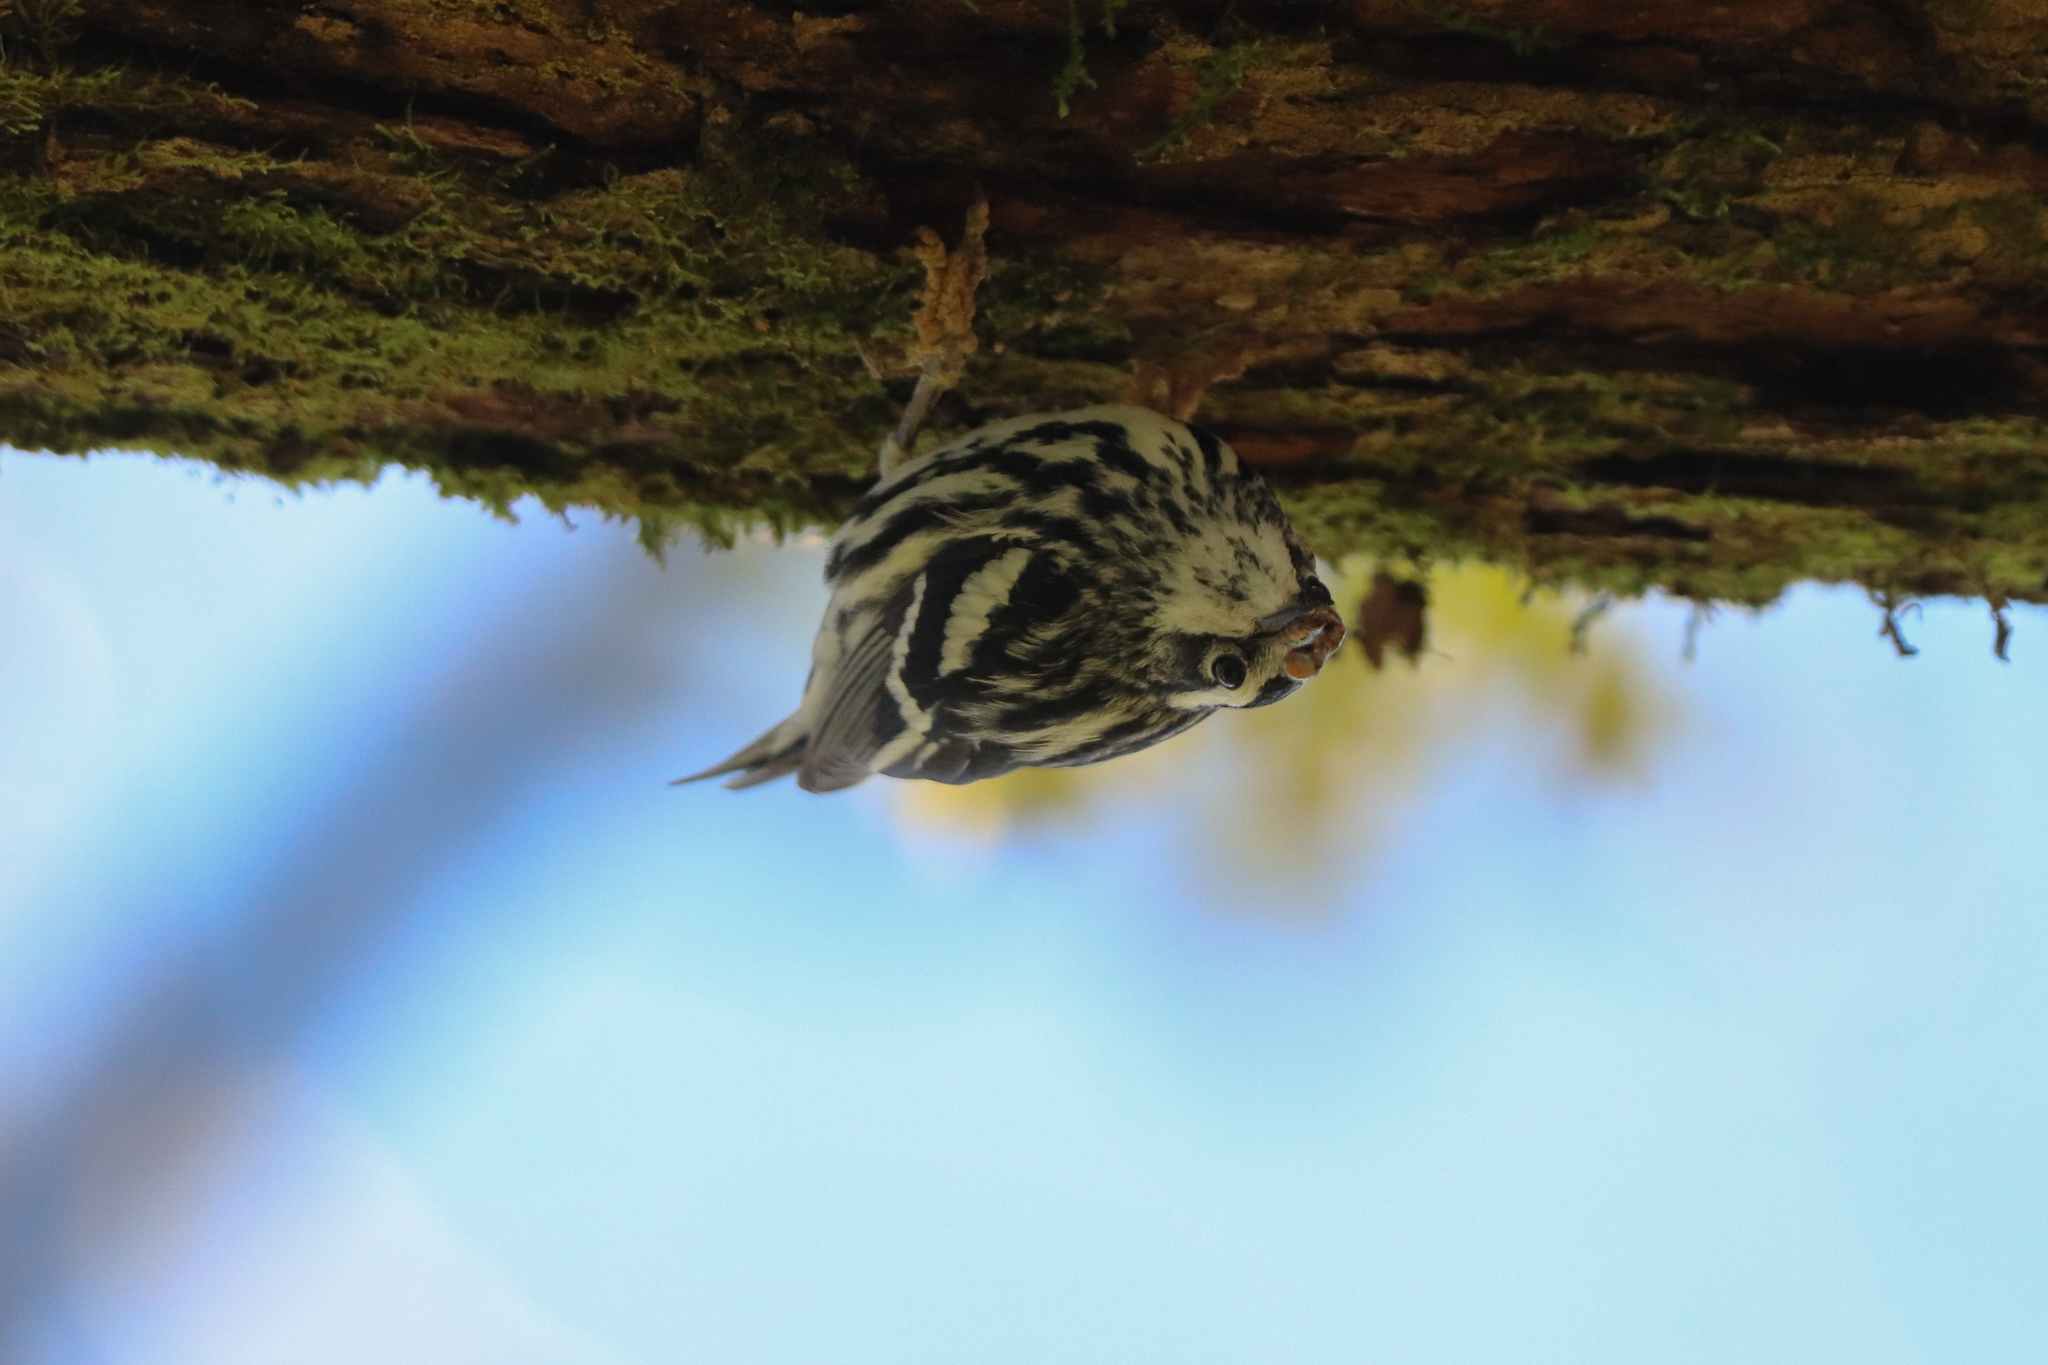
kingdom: Animalia
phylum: Chordata
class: Aves
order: Passeriformes
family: Parulidae
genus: Mniotilta
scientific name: Mniotilta varia
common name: Black-and-white warbler
